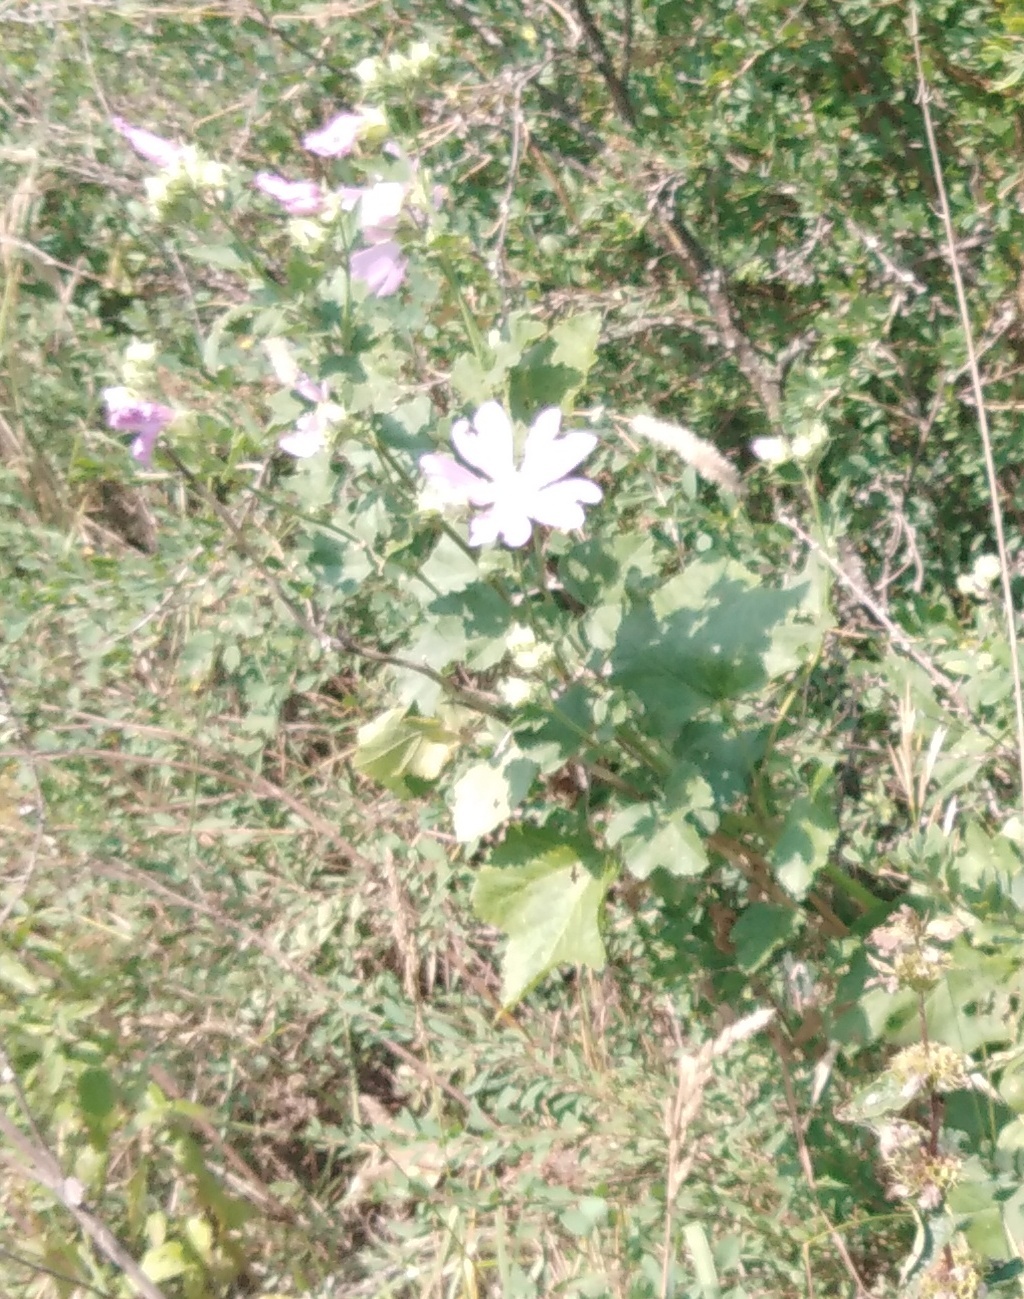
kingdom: Plantae
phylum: Tracheophyta
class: Magnoliopsida
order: Malvales
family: Malvaceae
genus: Malva
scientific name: Malva thuringiaca
